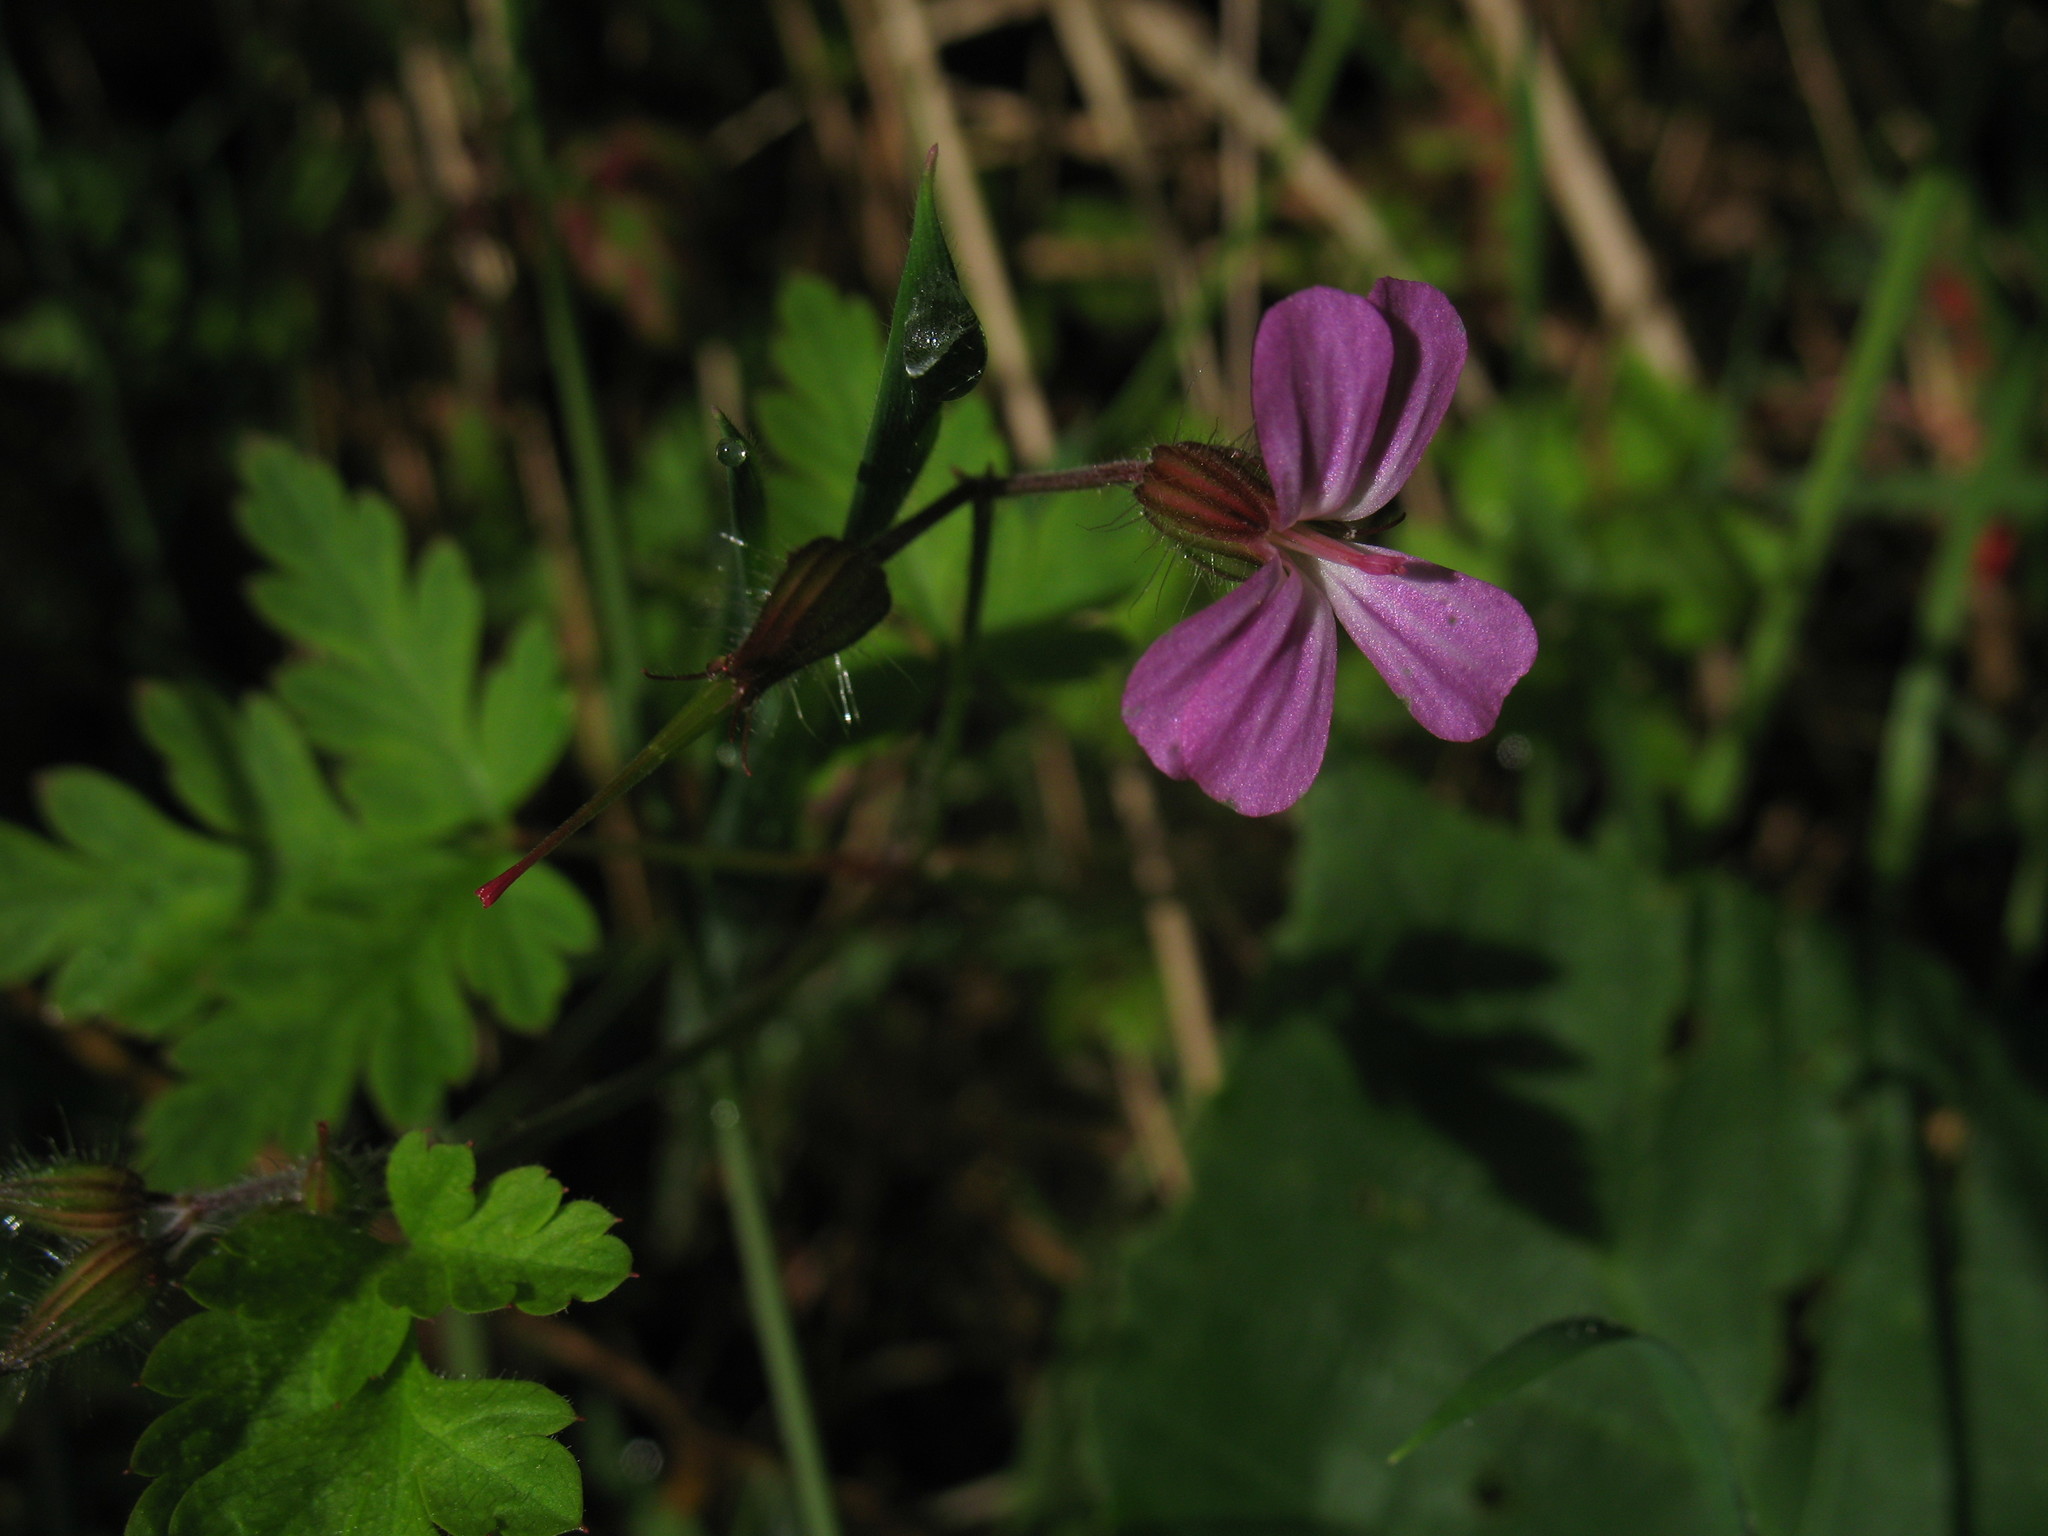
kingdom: Plantae
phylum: Tracheophyta
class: Magnoliopsida
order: Geraniales
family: Geraniaceae
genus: Geranium
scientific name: Geranium robertianum
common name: Herb-robert
